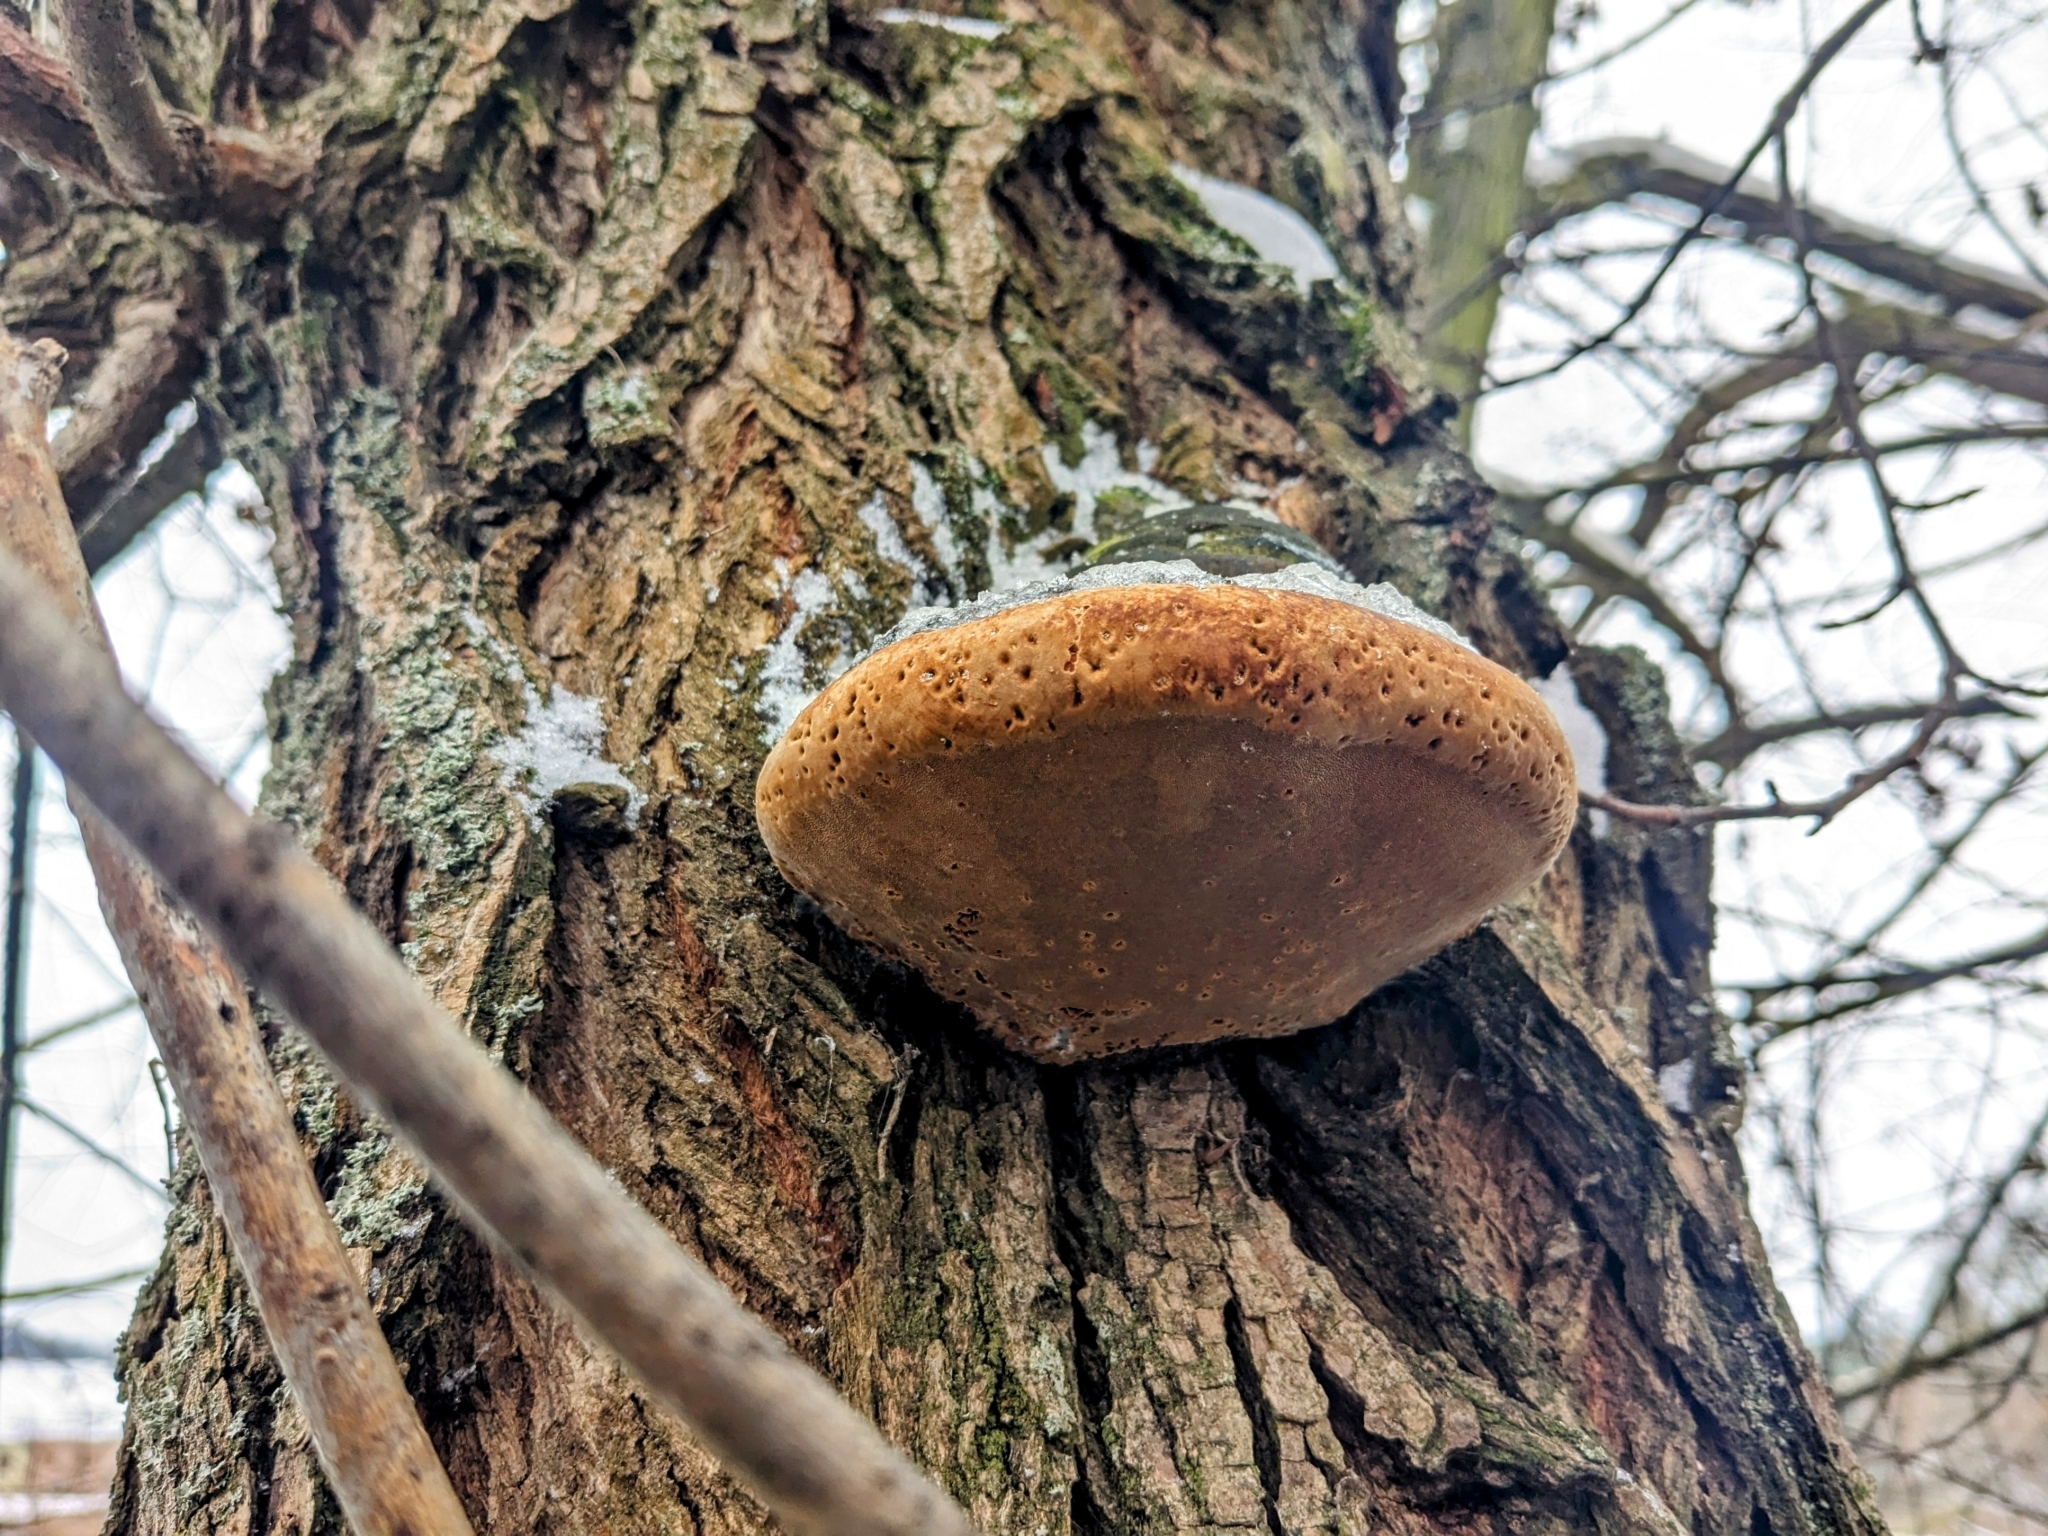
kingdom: Fungi
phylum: Basidiomycota
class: Agaricomycetes
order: Hymenochaetales
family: Hymenochaetaceae
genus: Phellinus
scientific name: Phellinus igniarius
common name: Willow bracket
